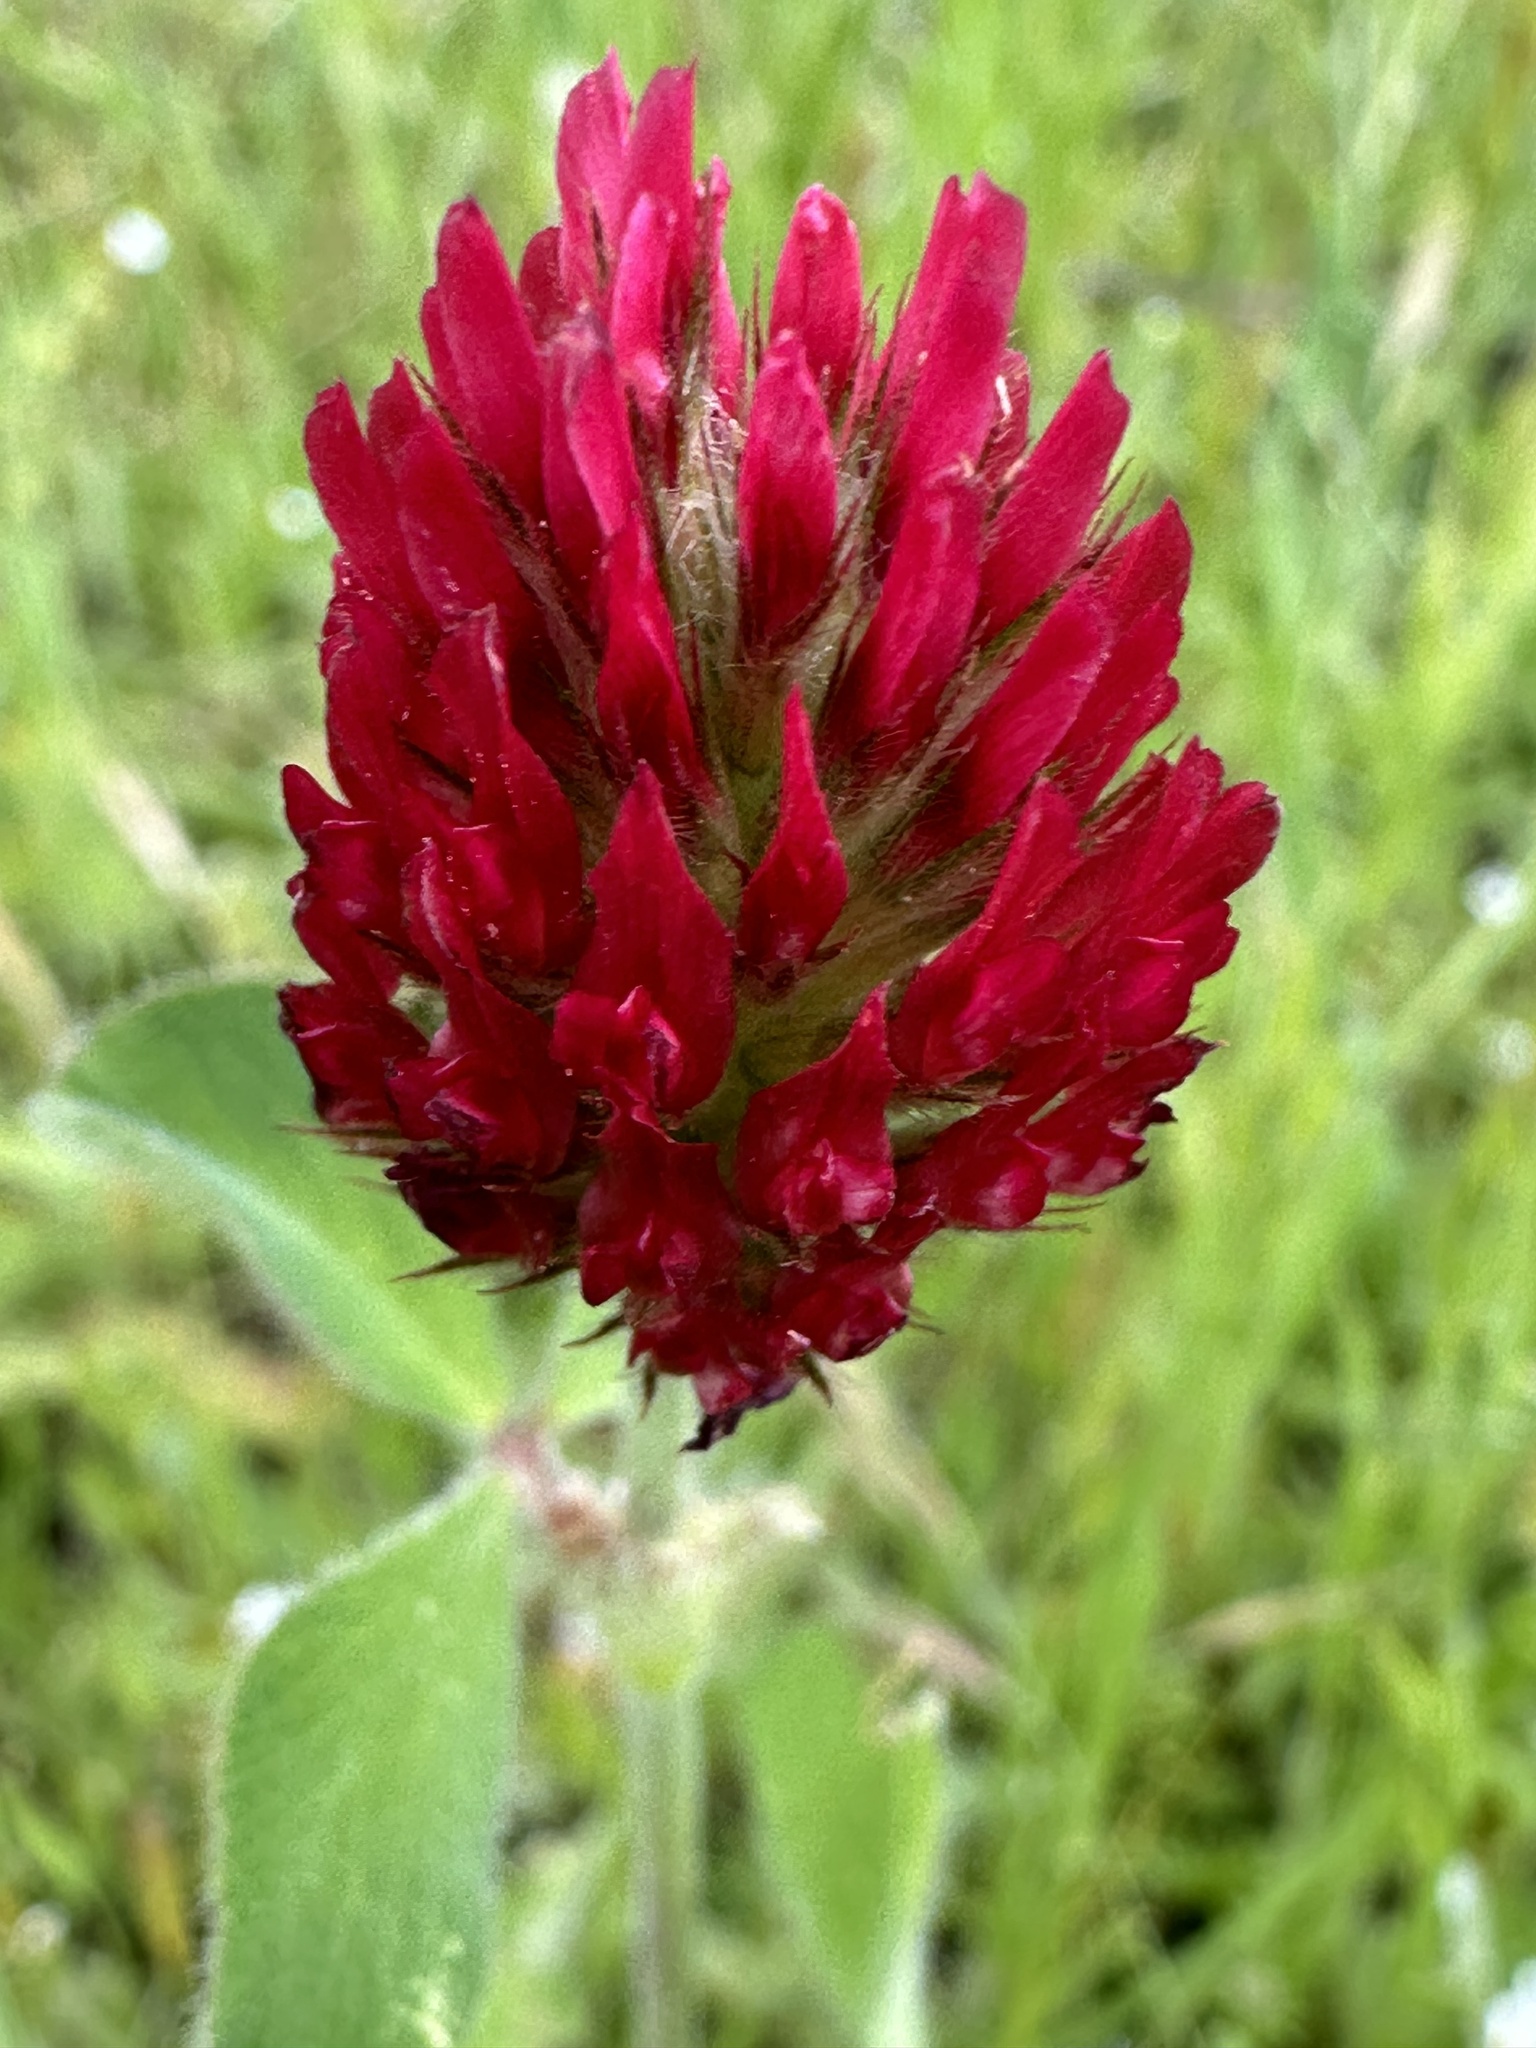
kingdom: Plantae
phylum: Tracheophyta
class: Magnoliopsida
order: Fabales
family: Fabaceae
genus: Trifolium
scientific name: Trifolium incarnatum
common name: Crimson clover
